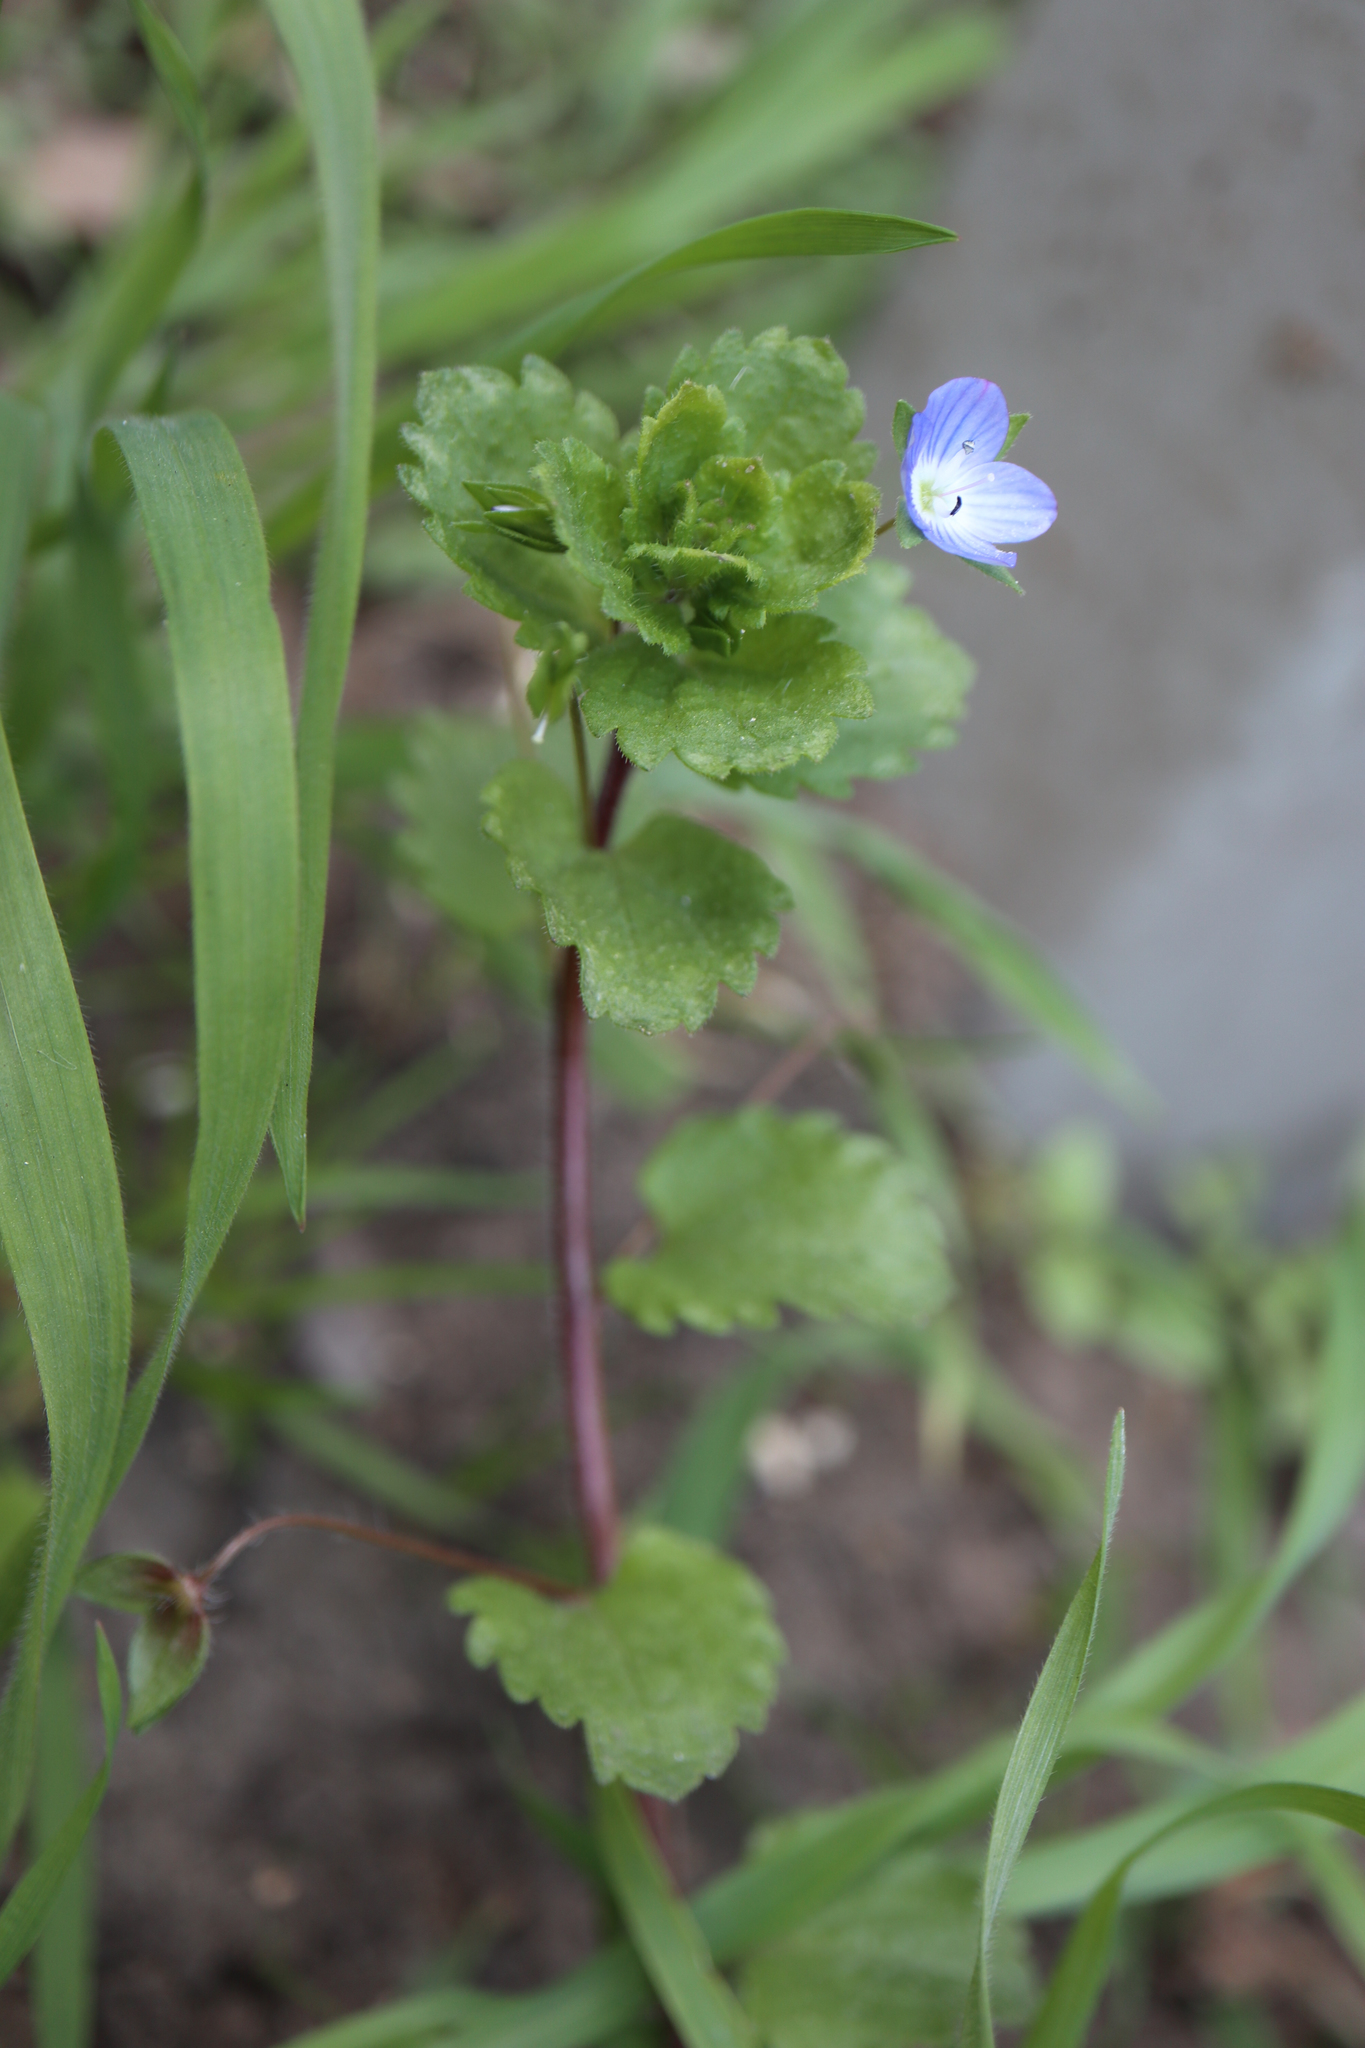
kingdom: Plantae
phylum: Tracheophyta
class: Magnoliopsida
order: Lamiales
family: Plantaginaceae
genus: Veronica
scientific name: Veronica persica
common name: Common field-speedwell
